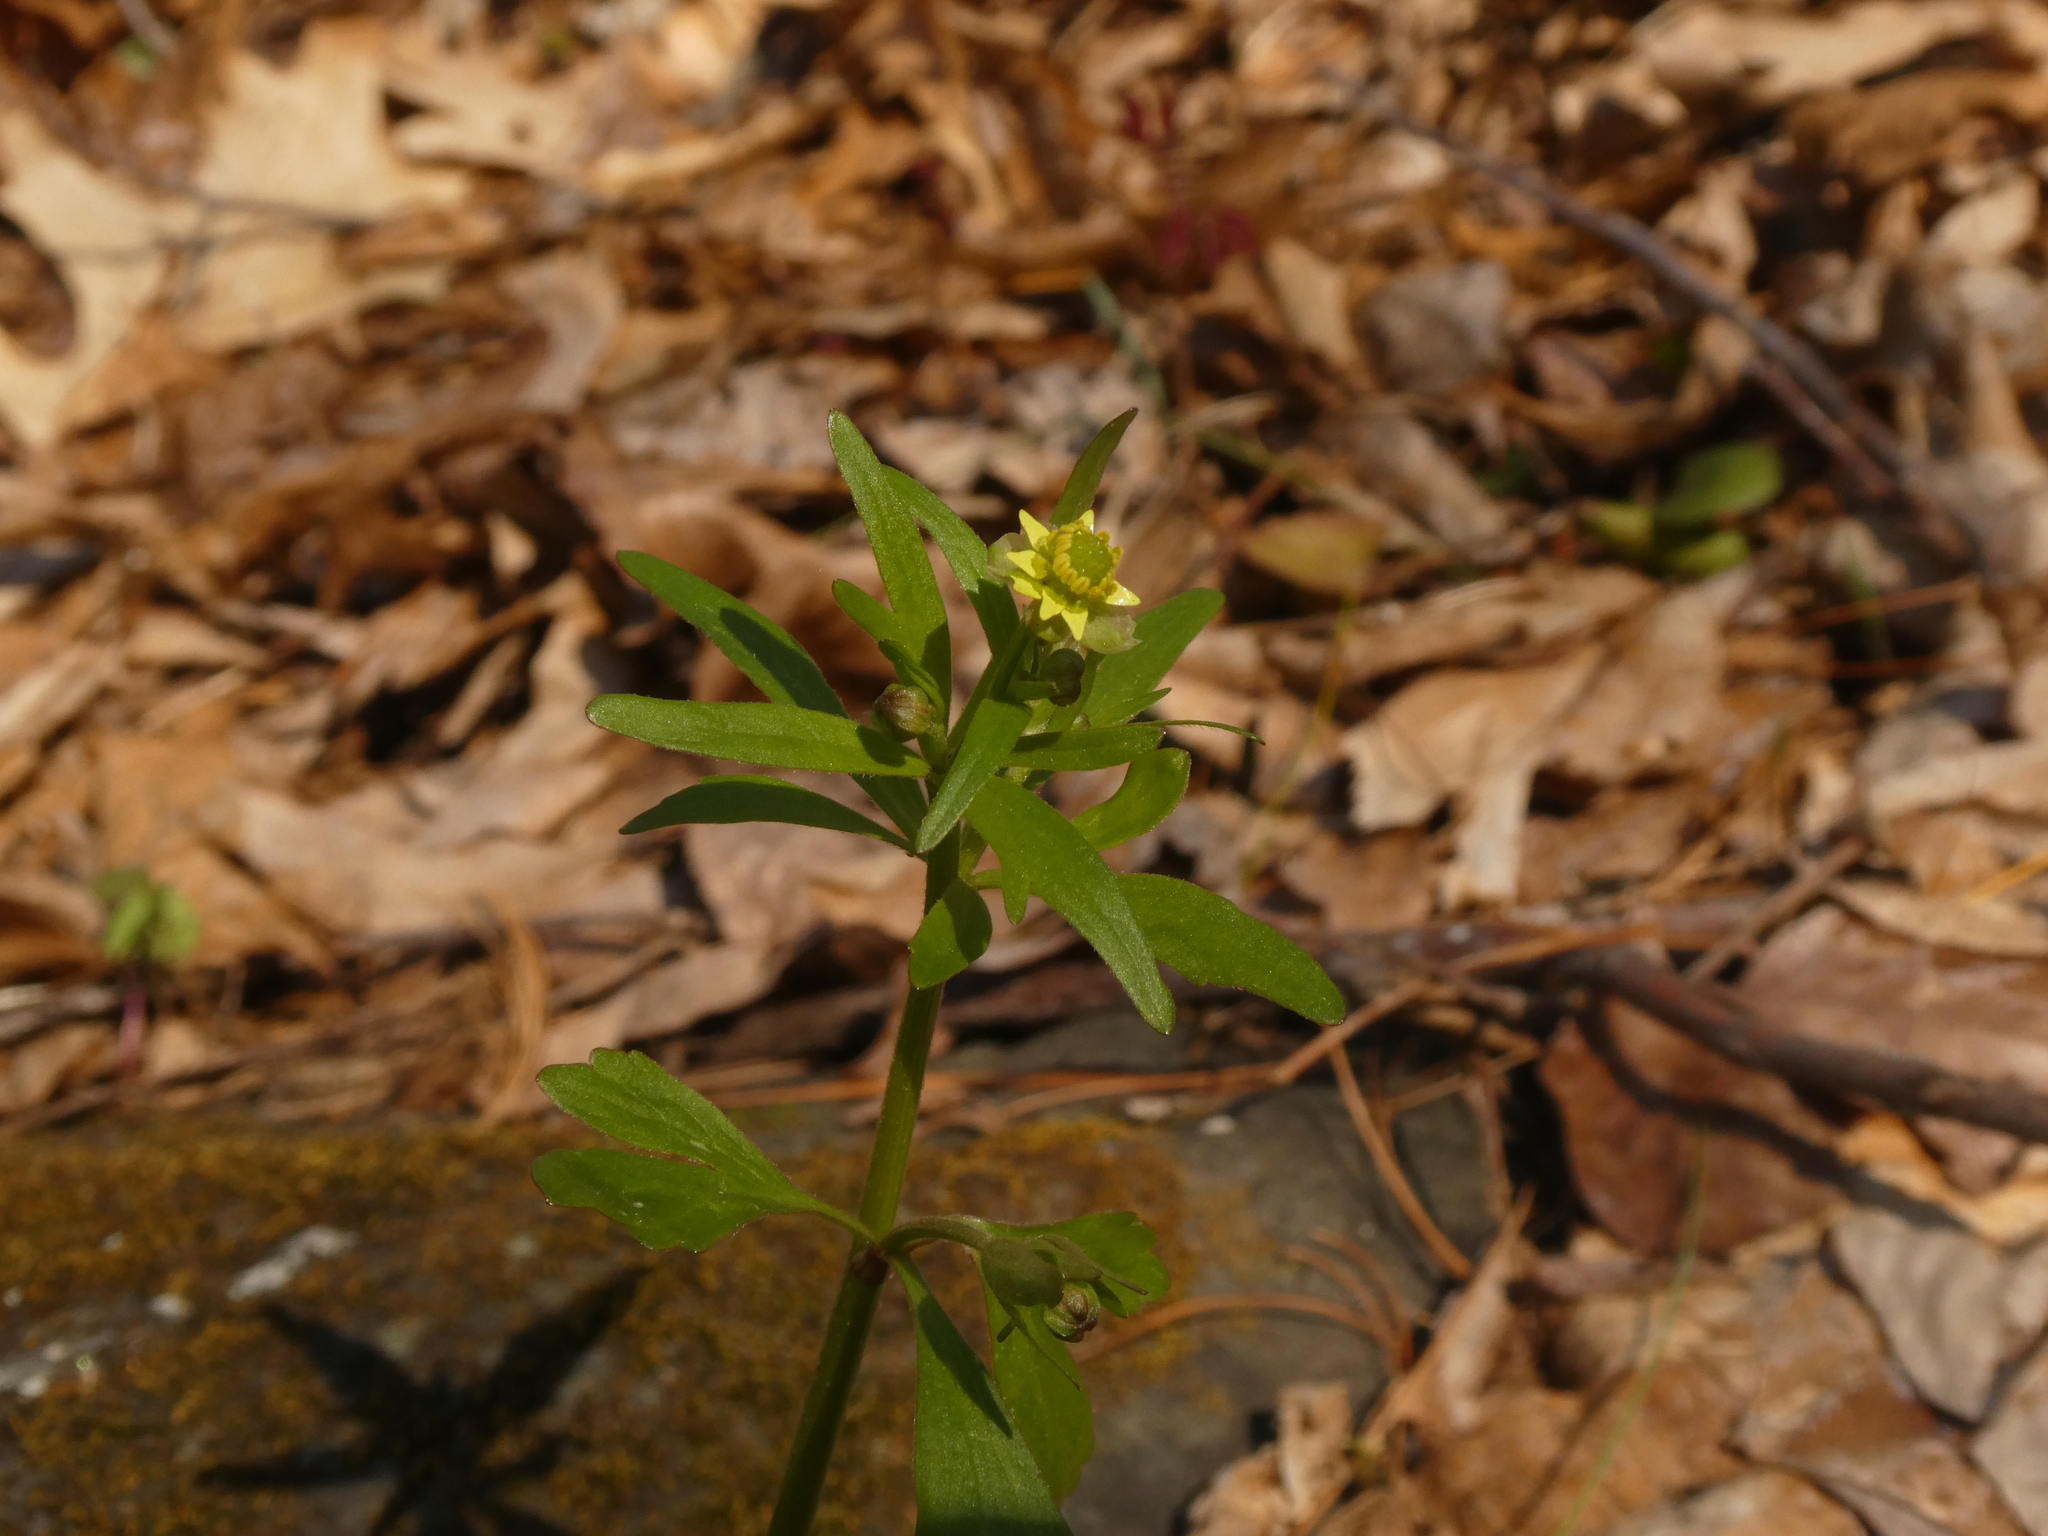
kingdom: Plantae
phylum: Tracheophyta
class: Magnoliopsida
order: Ranunculales
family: Ranunculaceae
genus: Ranunculus
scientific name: Ranunculus abortivus
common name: Early wood buttercup
